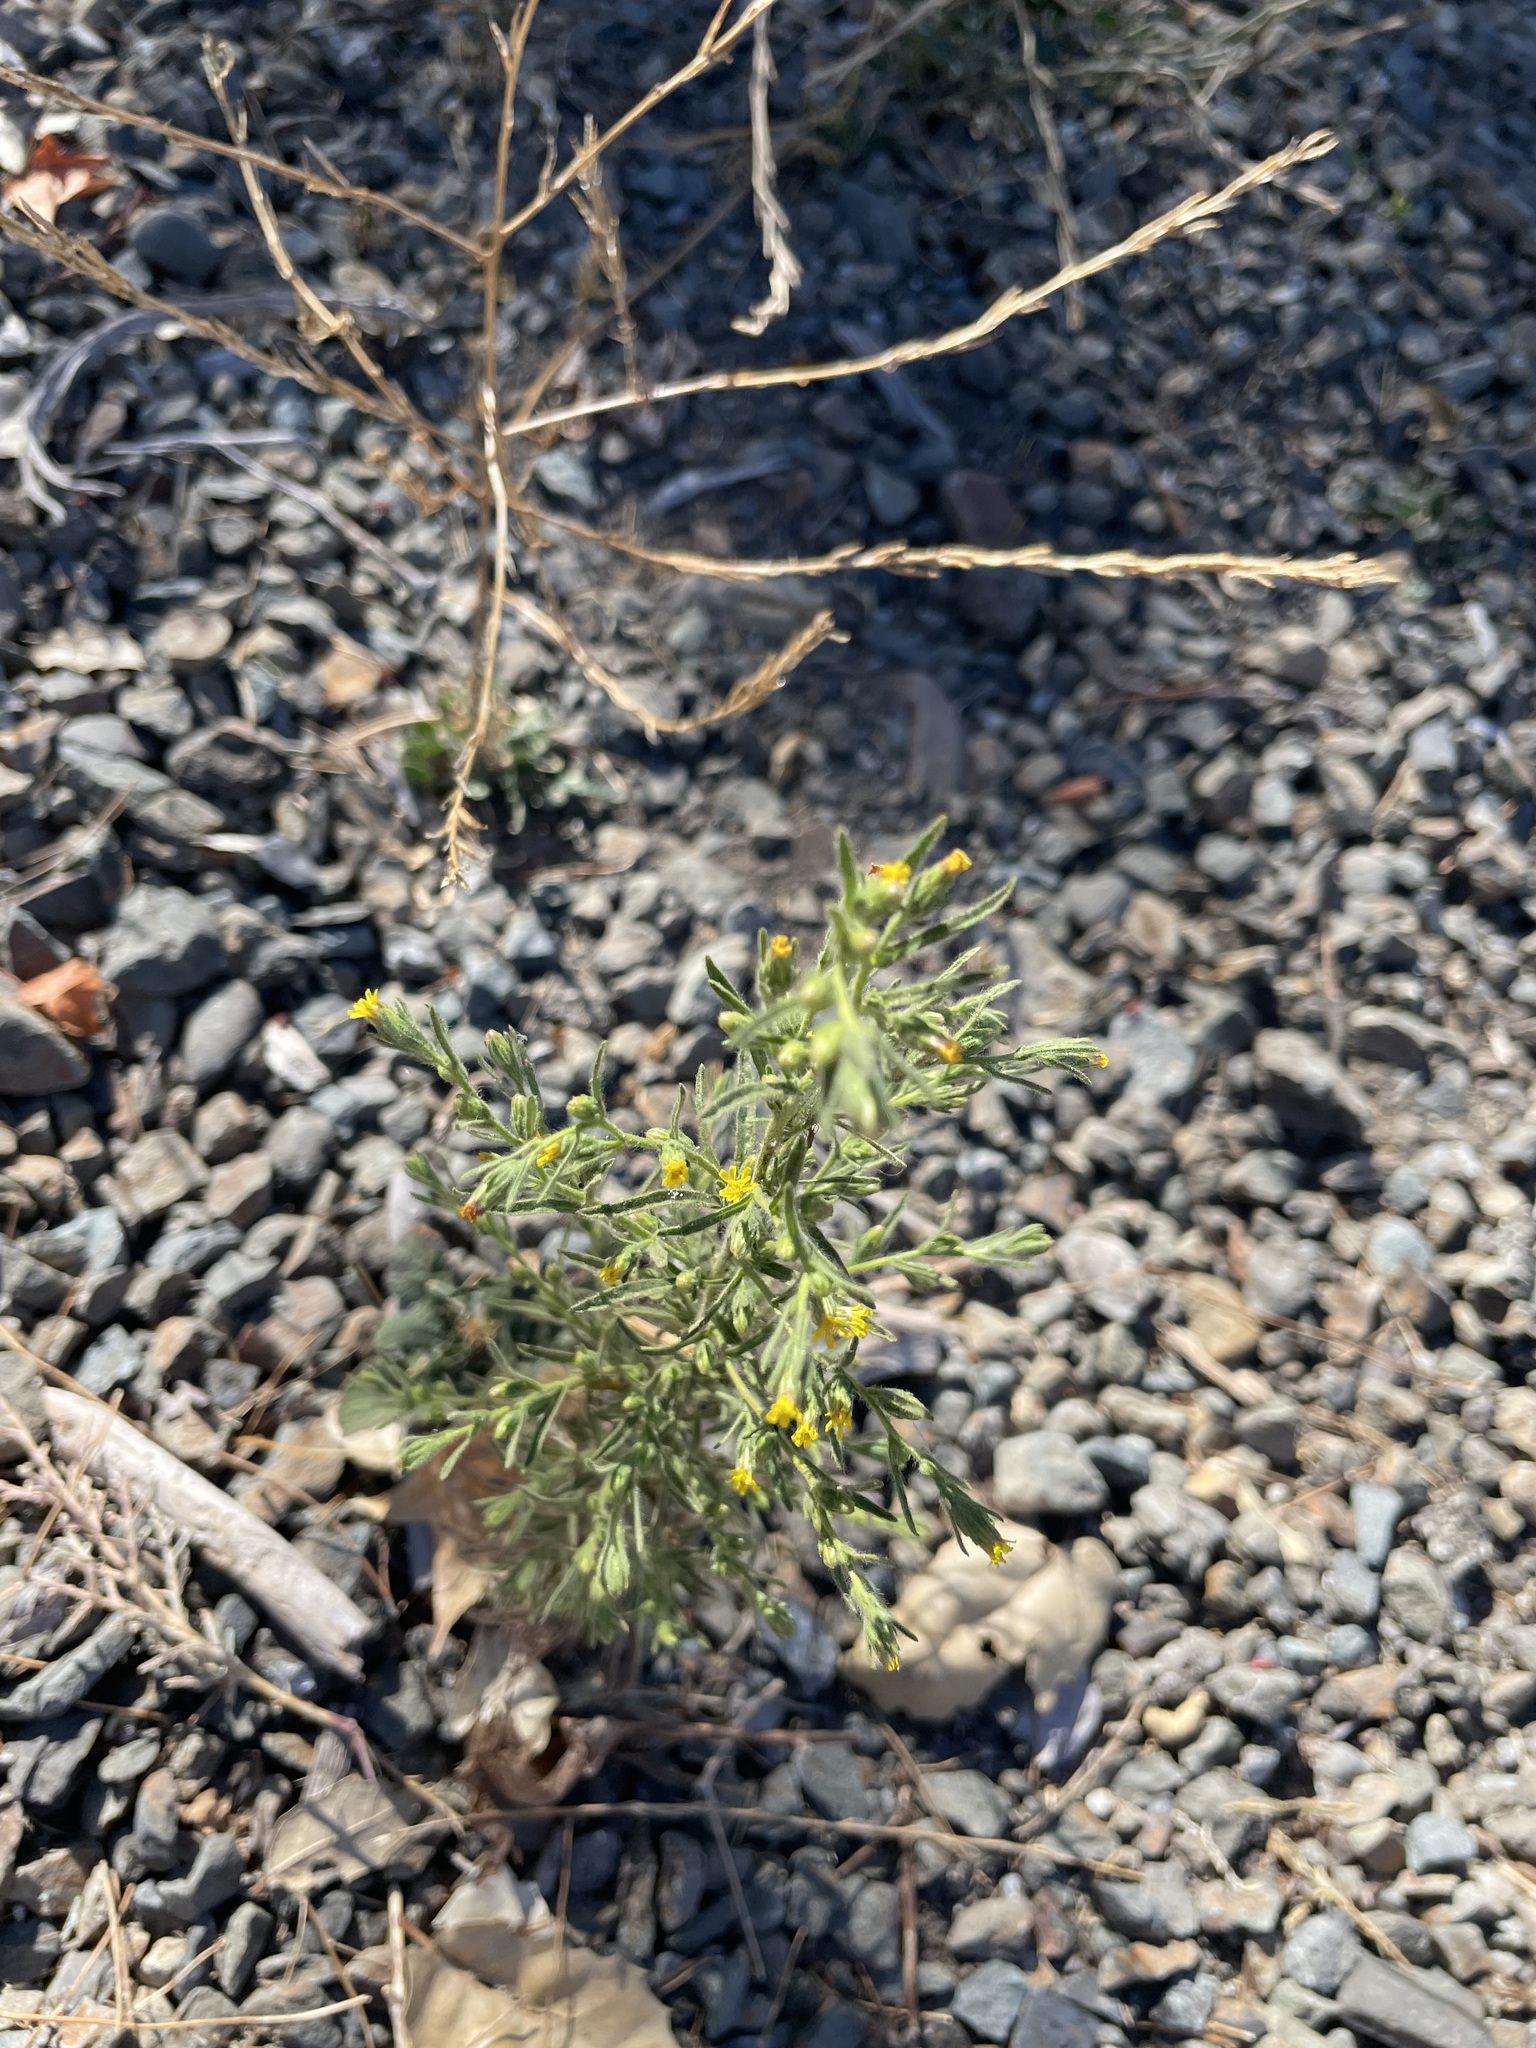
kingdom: Plantae
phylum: Tracheophyta
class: Magnoliopsida
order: Asterales
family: Asteraceae
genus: Dittrichia
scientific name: Dittrichia graveolens
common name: Stinking fleabane
